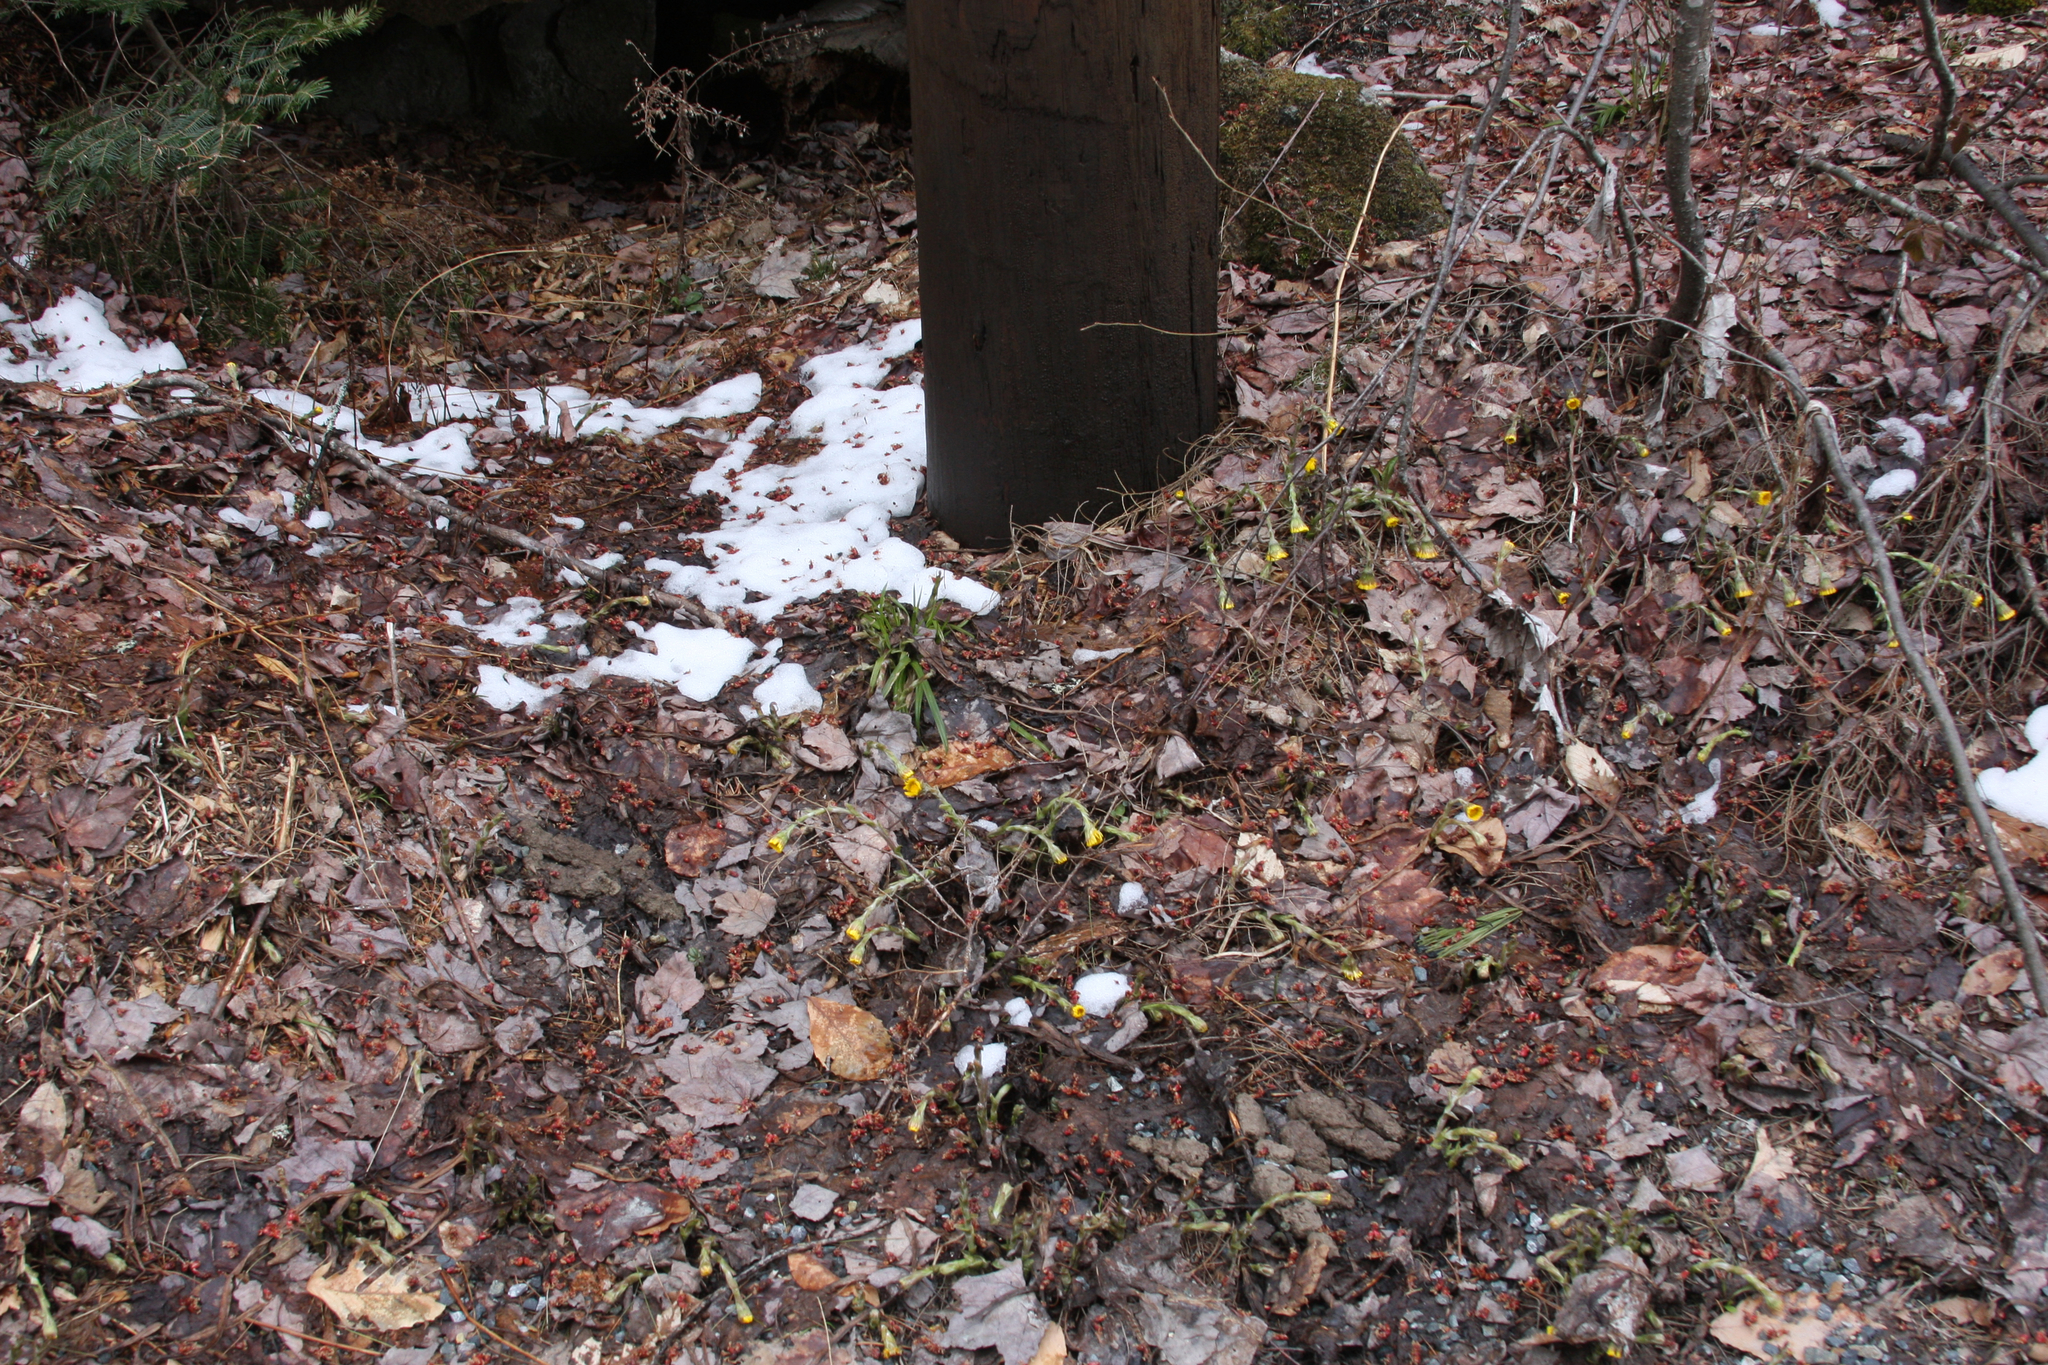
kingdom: Plantae
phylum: Tracheophyta
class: Magnoliopsida
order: Asterales
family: Asteraceae
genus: Tussilago
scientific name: Tussilago farfara
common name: Coltsfoot
